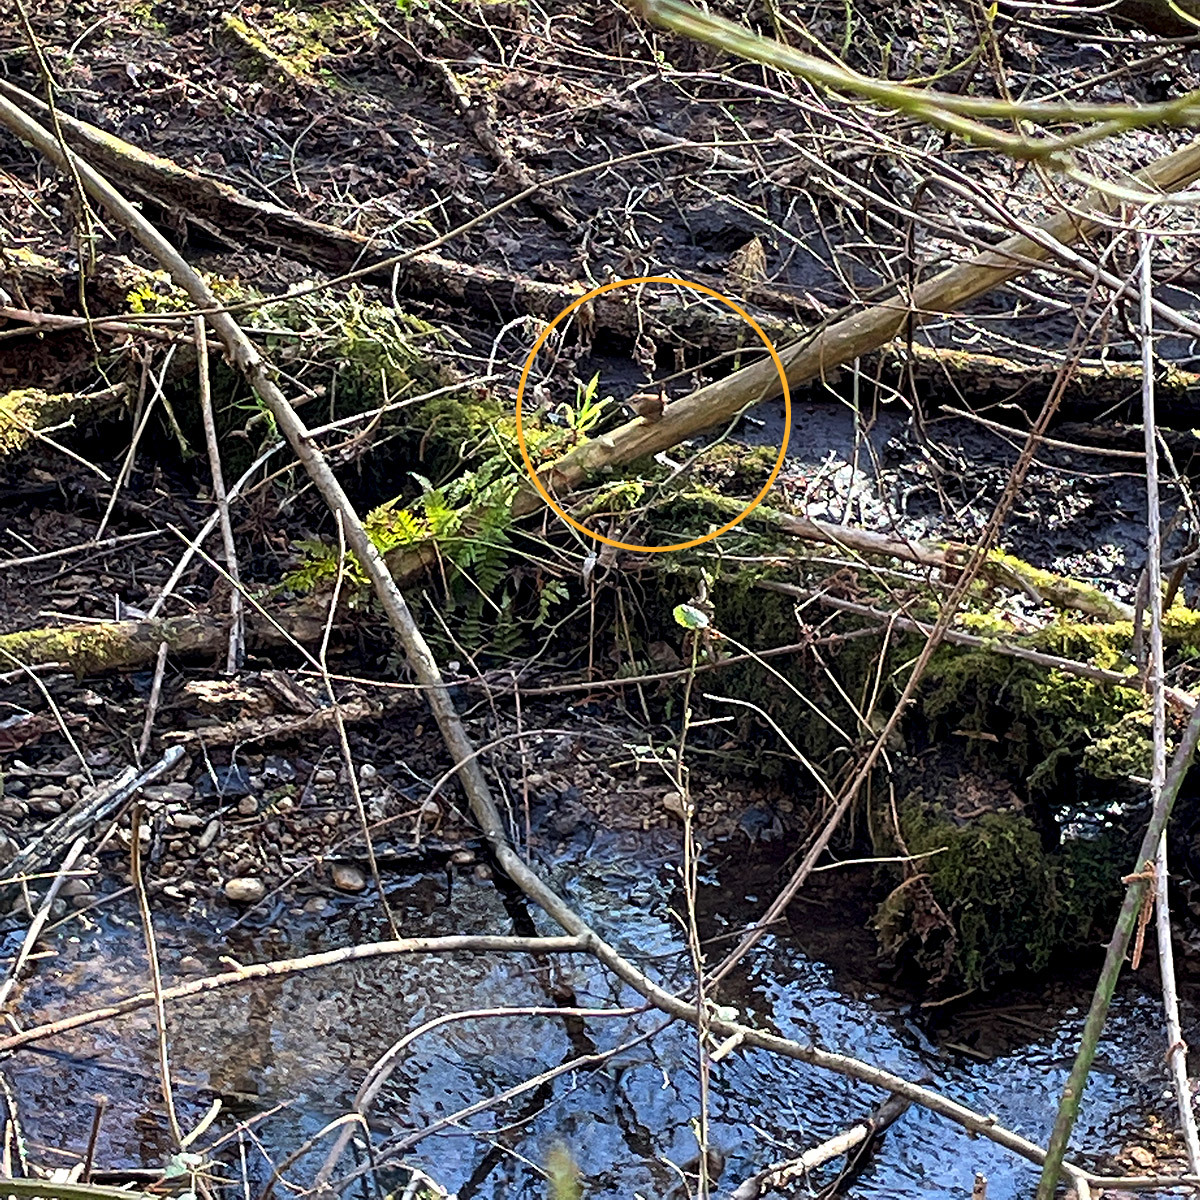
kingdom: Animalia
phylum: Chordata
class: Aves
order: Passeriformes
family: Troglodytidae
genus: Troglodytes
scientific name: Troglodytes troglodytes
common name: Eurasian wren
